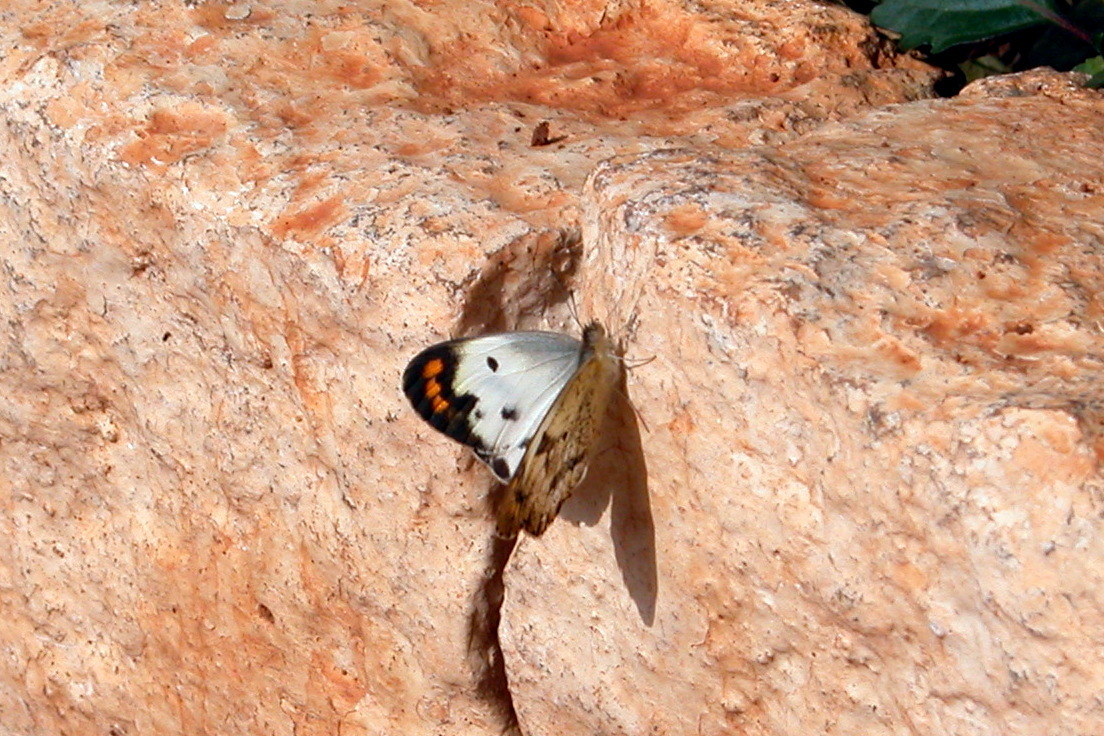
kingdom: Animalia
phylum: Arthropoda
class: Insecta
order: Lepidoptera
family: Pieridae
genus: Colotis
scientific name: Colotis aurora
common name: Plain orange-tip
